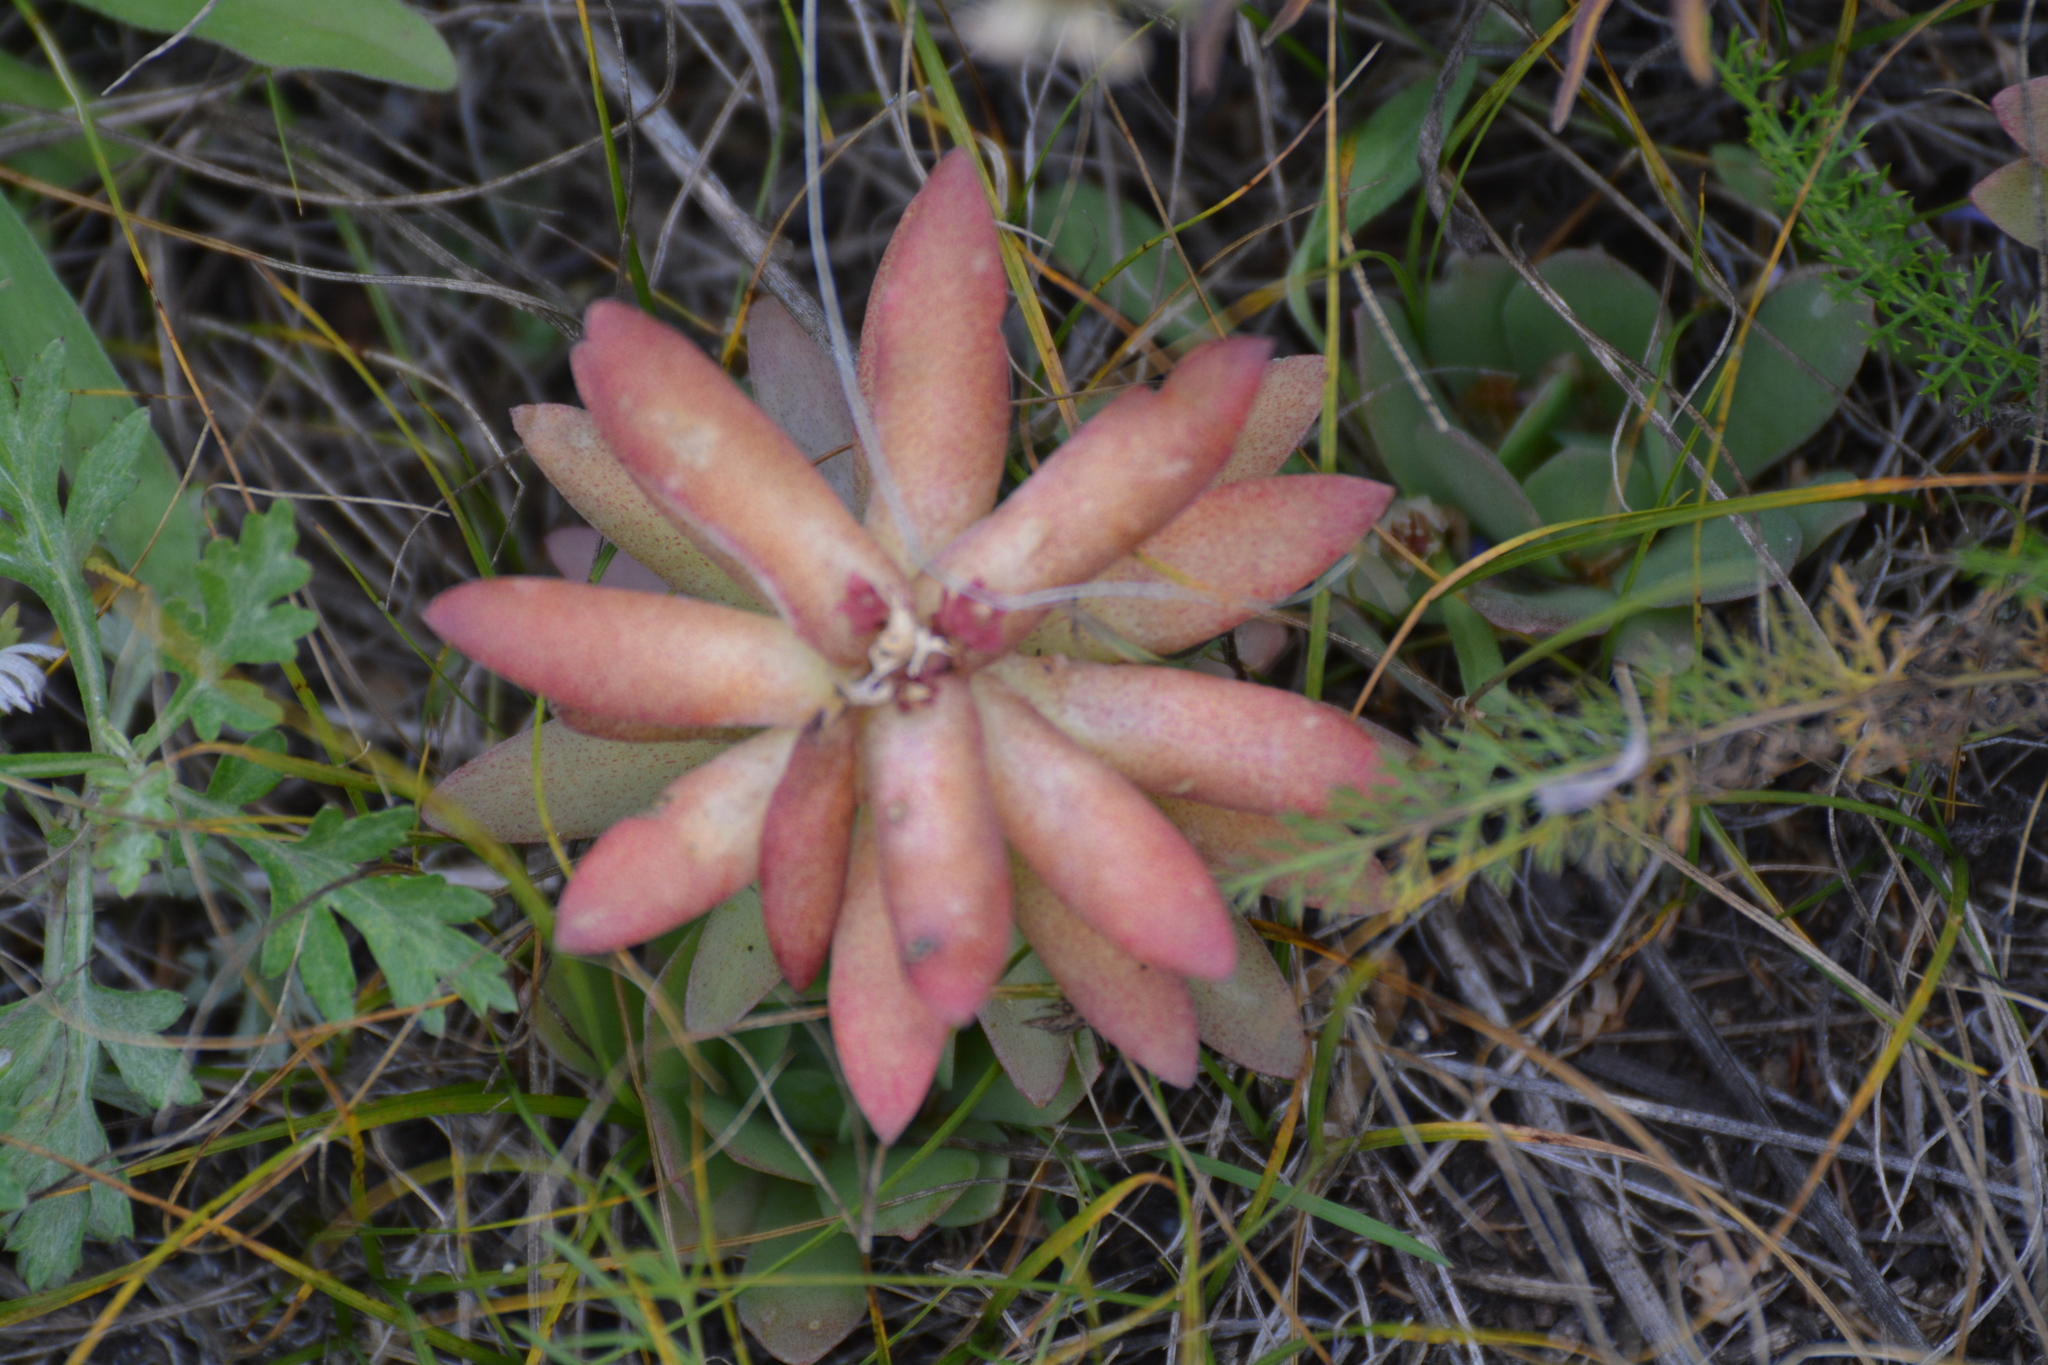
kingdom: Plantae
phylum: Tracheophyta
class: Magnoliopsida
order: Saxifragales
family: Crassulaceae
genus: Orostachys
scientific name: Orostachys malacophylla
